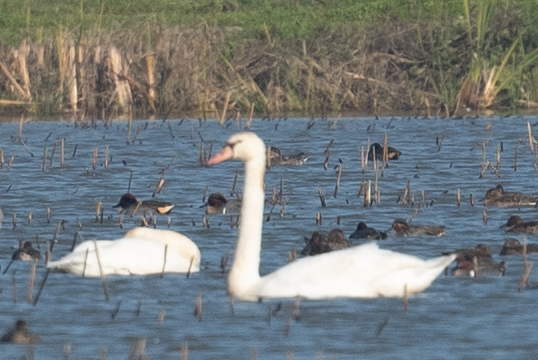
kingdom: Animalia
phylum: Chordata
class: Aves
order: Anseriformes
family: Anatidae
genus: Cygnus
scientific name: Cygnus olor
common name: Mute swan
